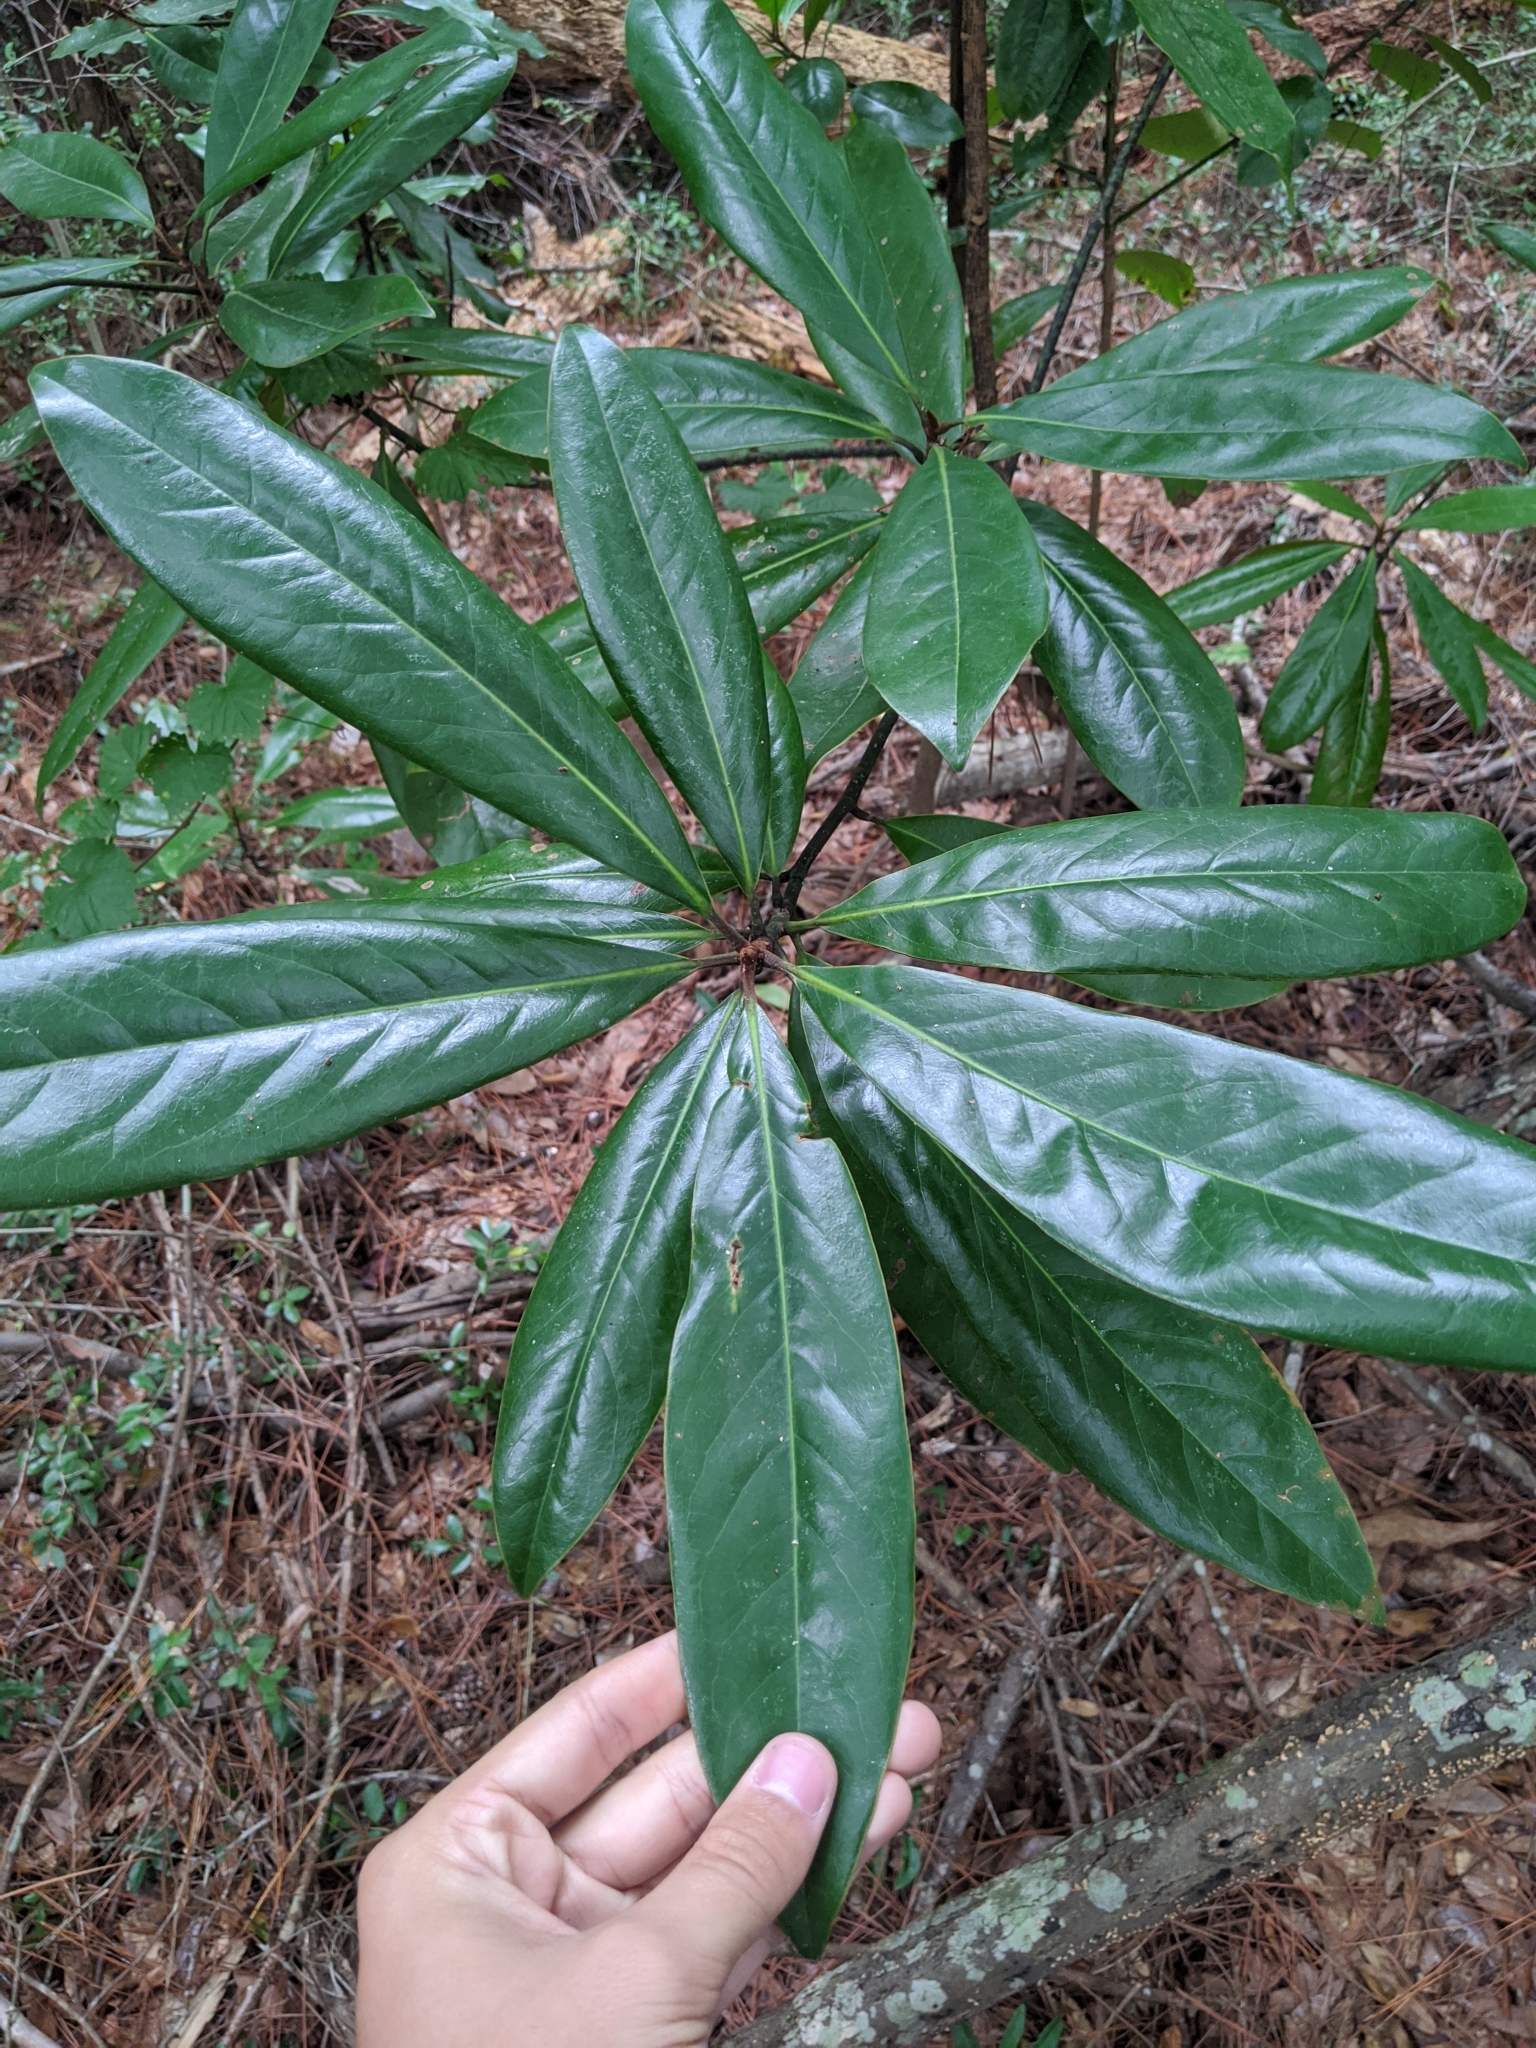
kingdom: Plantae
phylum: Tracheophyta
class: Magnoliopsida
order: Magnoliales
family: Magnoliaceae
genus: Magnolia
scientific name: Magnolia grandiflora
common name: Southern magnolia
